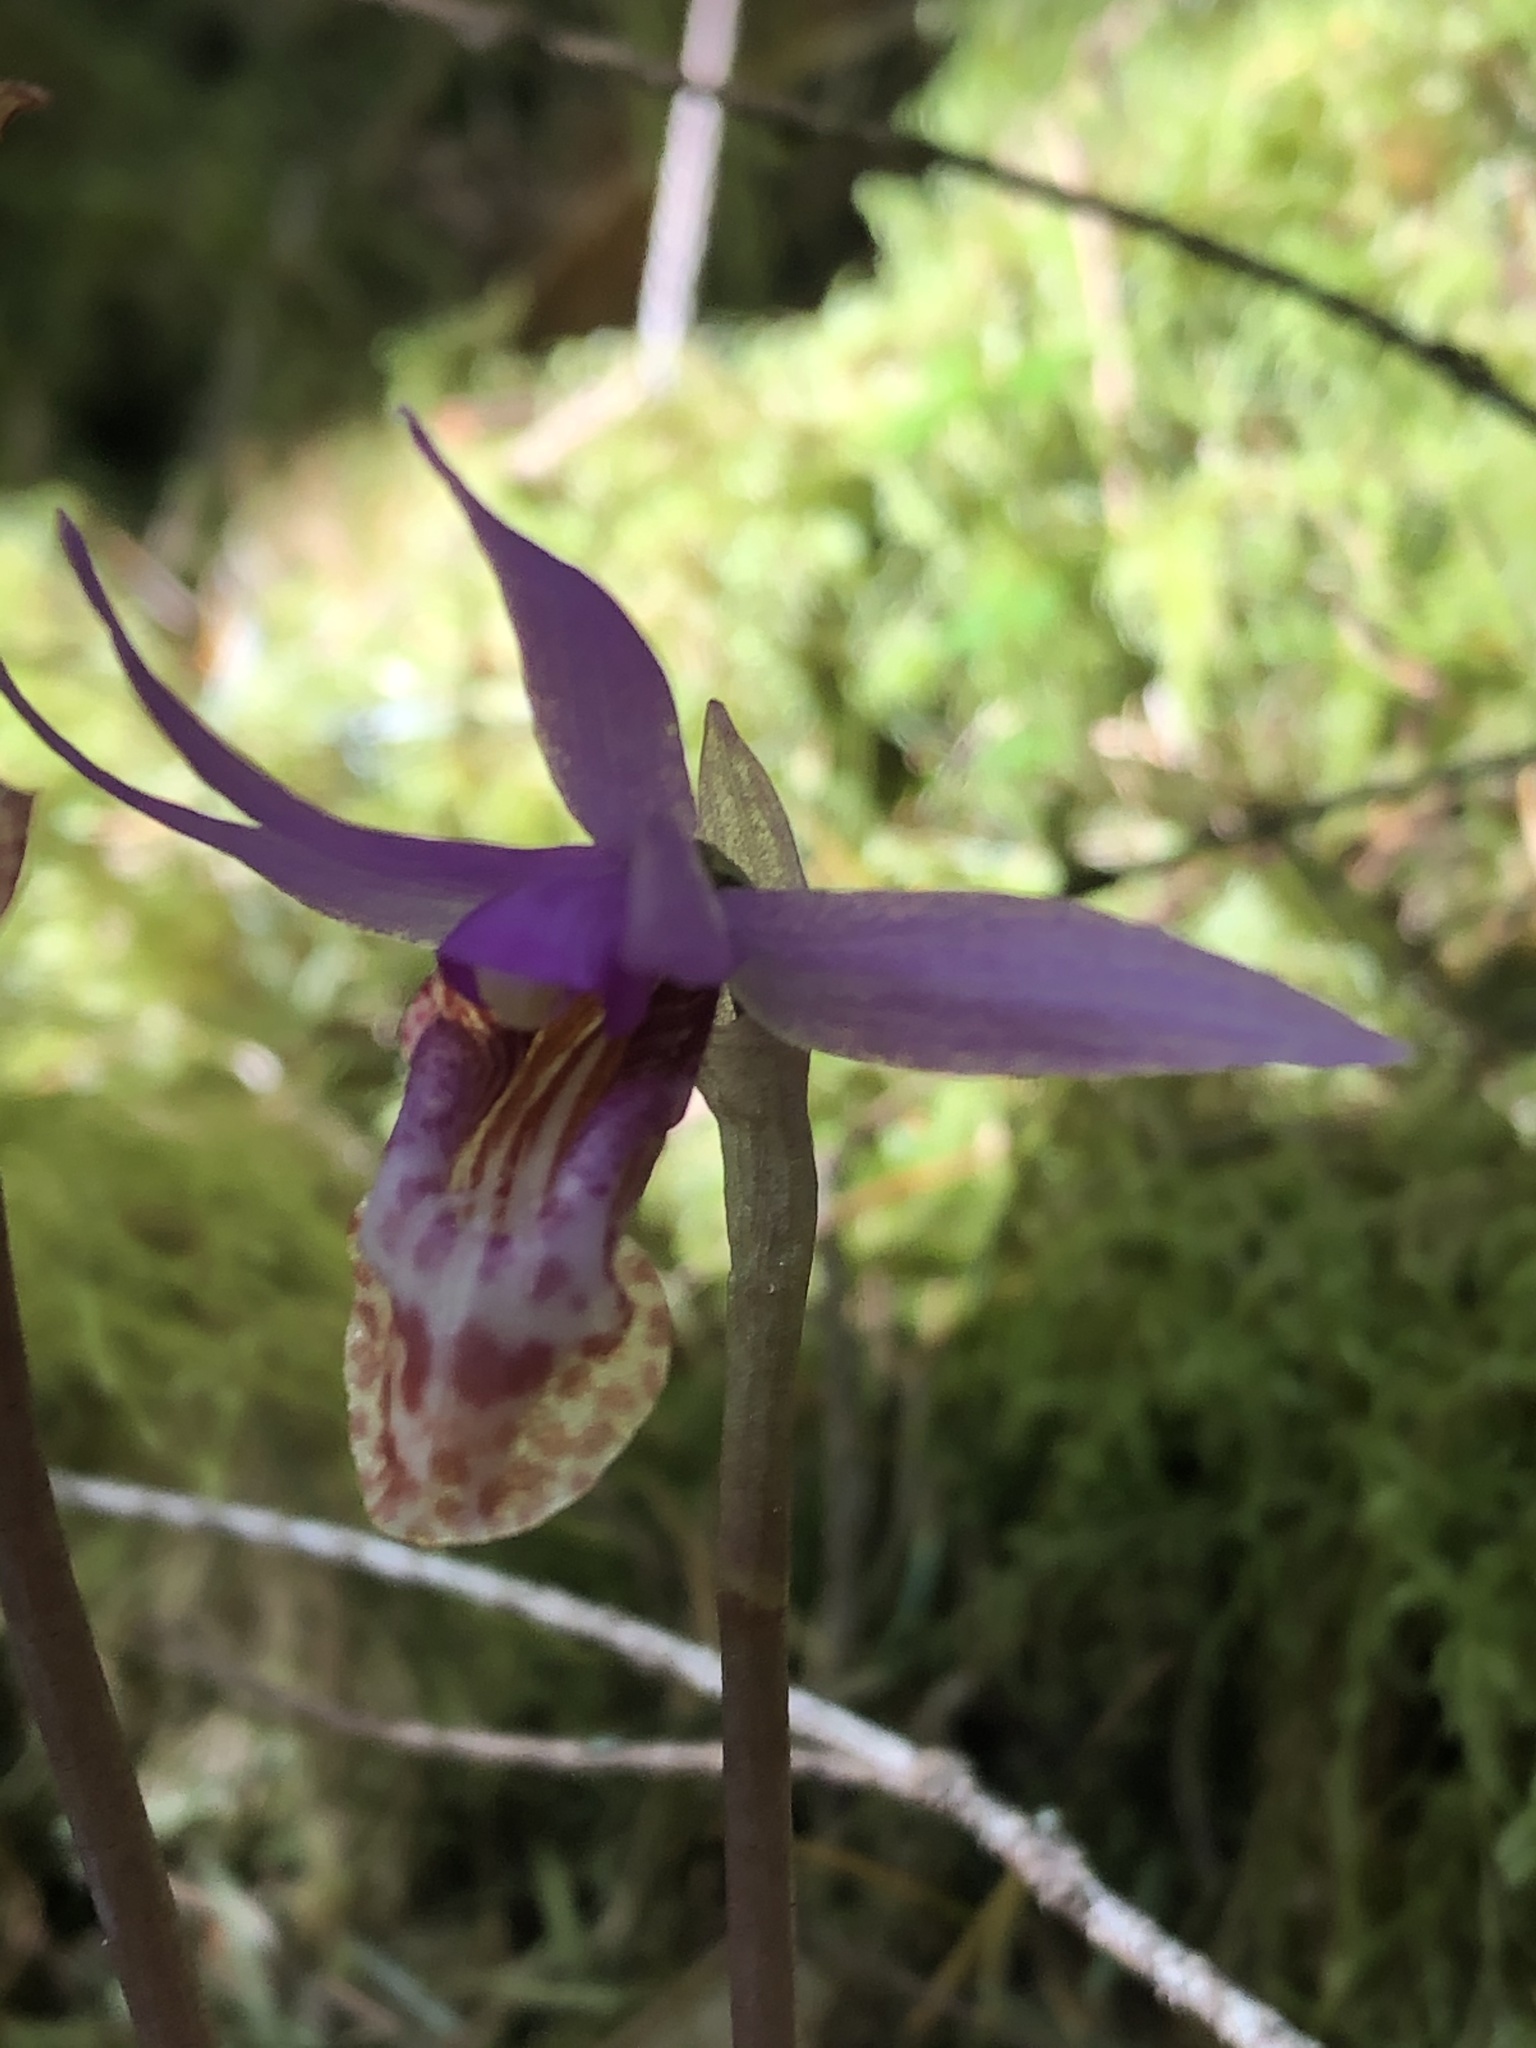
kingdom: Plantae
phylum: Tracheophyta
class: Liliopsida
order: Asparagales
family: Orchidaceae
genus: Calypso
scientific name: Calypso bulbosa
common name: Calypso
